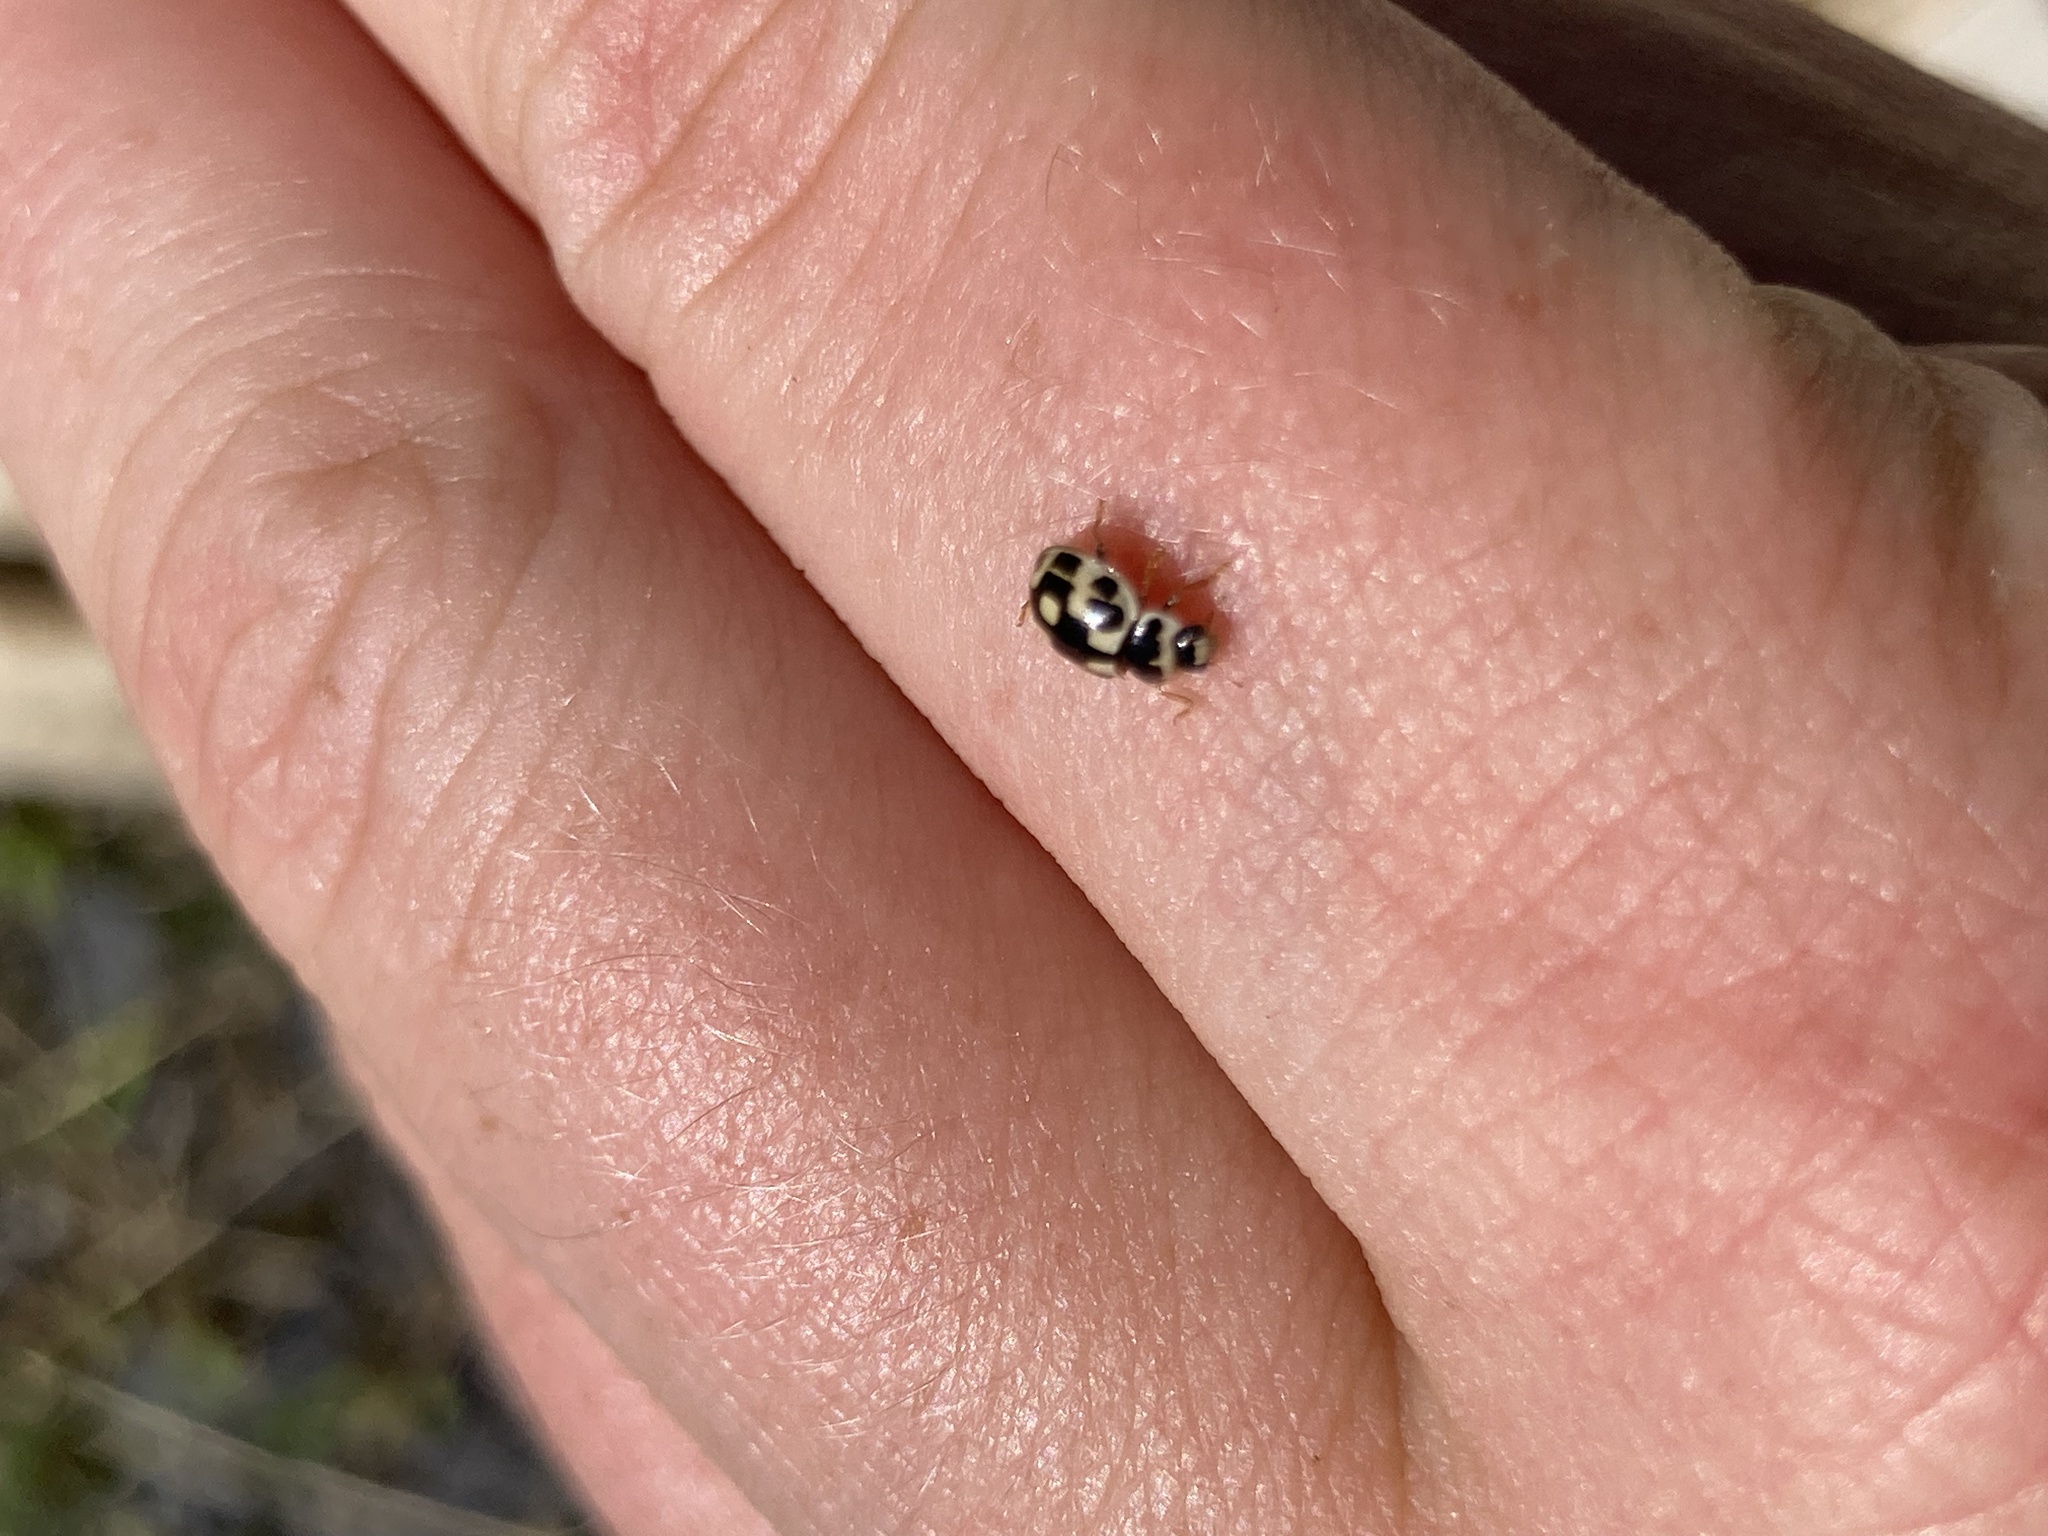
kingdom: Animalia
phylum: Arthropoda
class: Insecta
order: Coleoptera
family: Coccinellidae
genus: Propylaea
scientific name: Propylaea quatuordecimpunctata
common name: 14-spotted ladybird beetle
